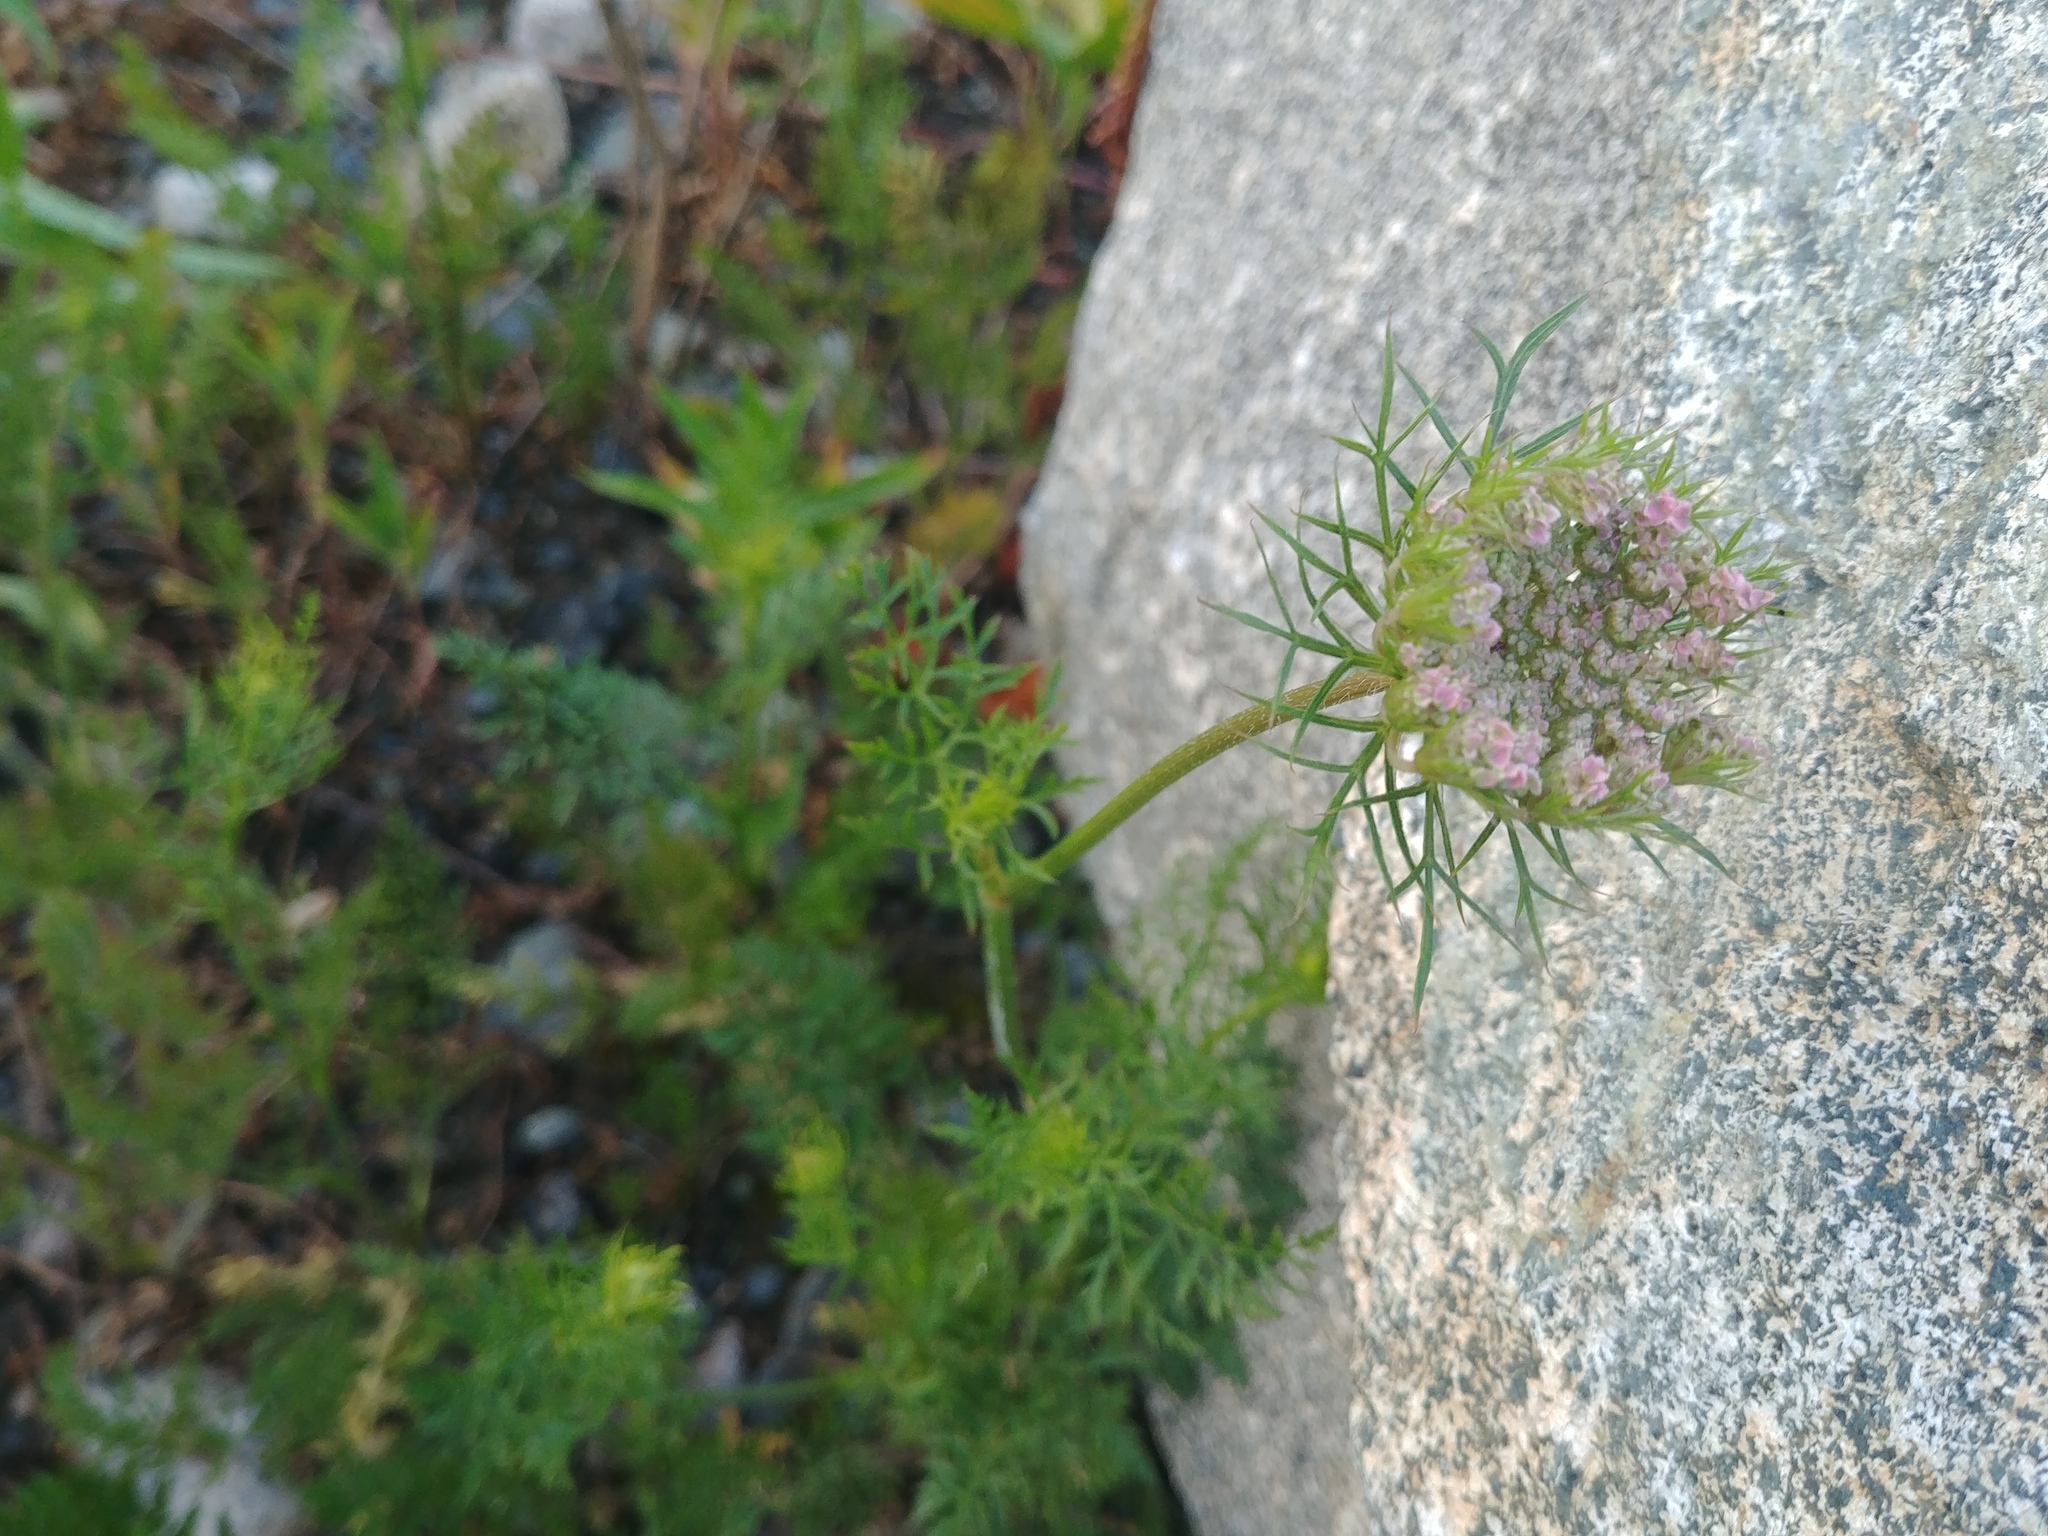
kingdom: Plantae
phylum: Tracheophyta
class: Magnoliopsida
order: Apiales
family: Apiaceae
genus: Daucus
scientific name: Daucus carota
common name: Wild carrot
